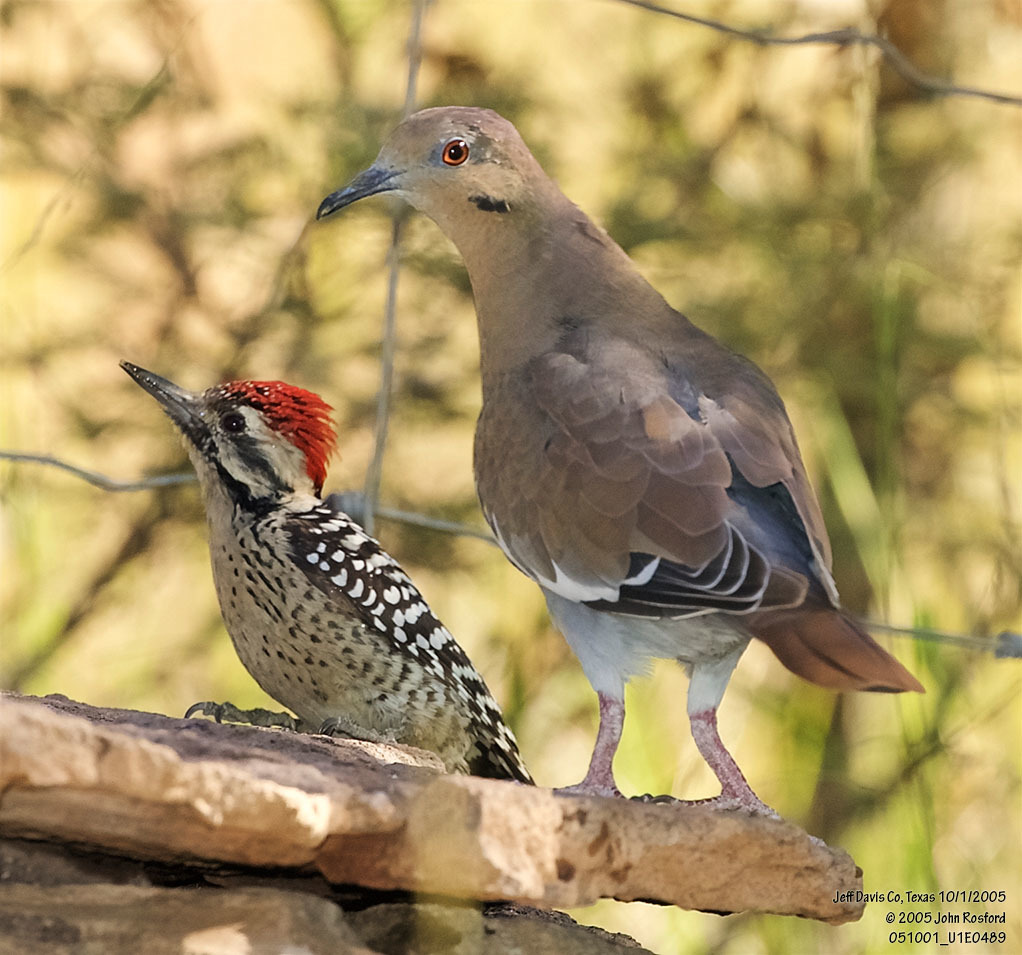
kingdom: Animalia
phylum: Chordata
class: Aves
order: Columbiformes
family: Columbidae
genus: Zenaida
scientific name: Zenaida asiatica
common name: White-winged dove
